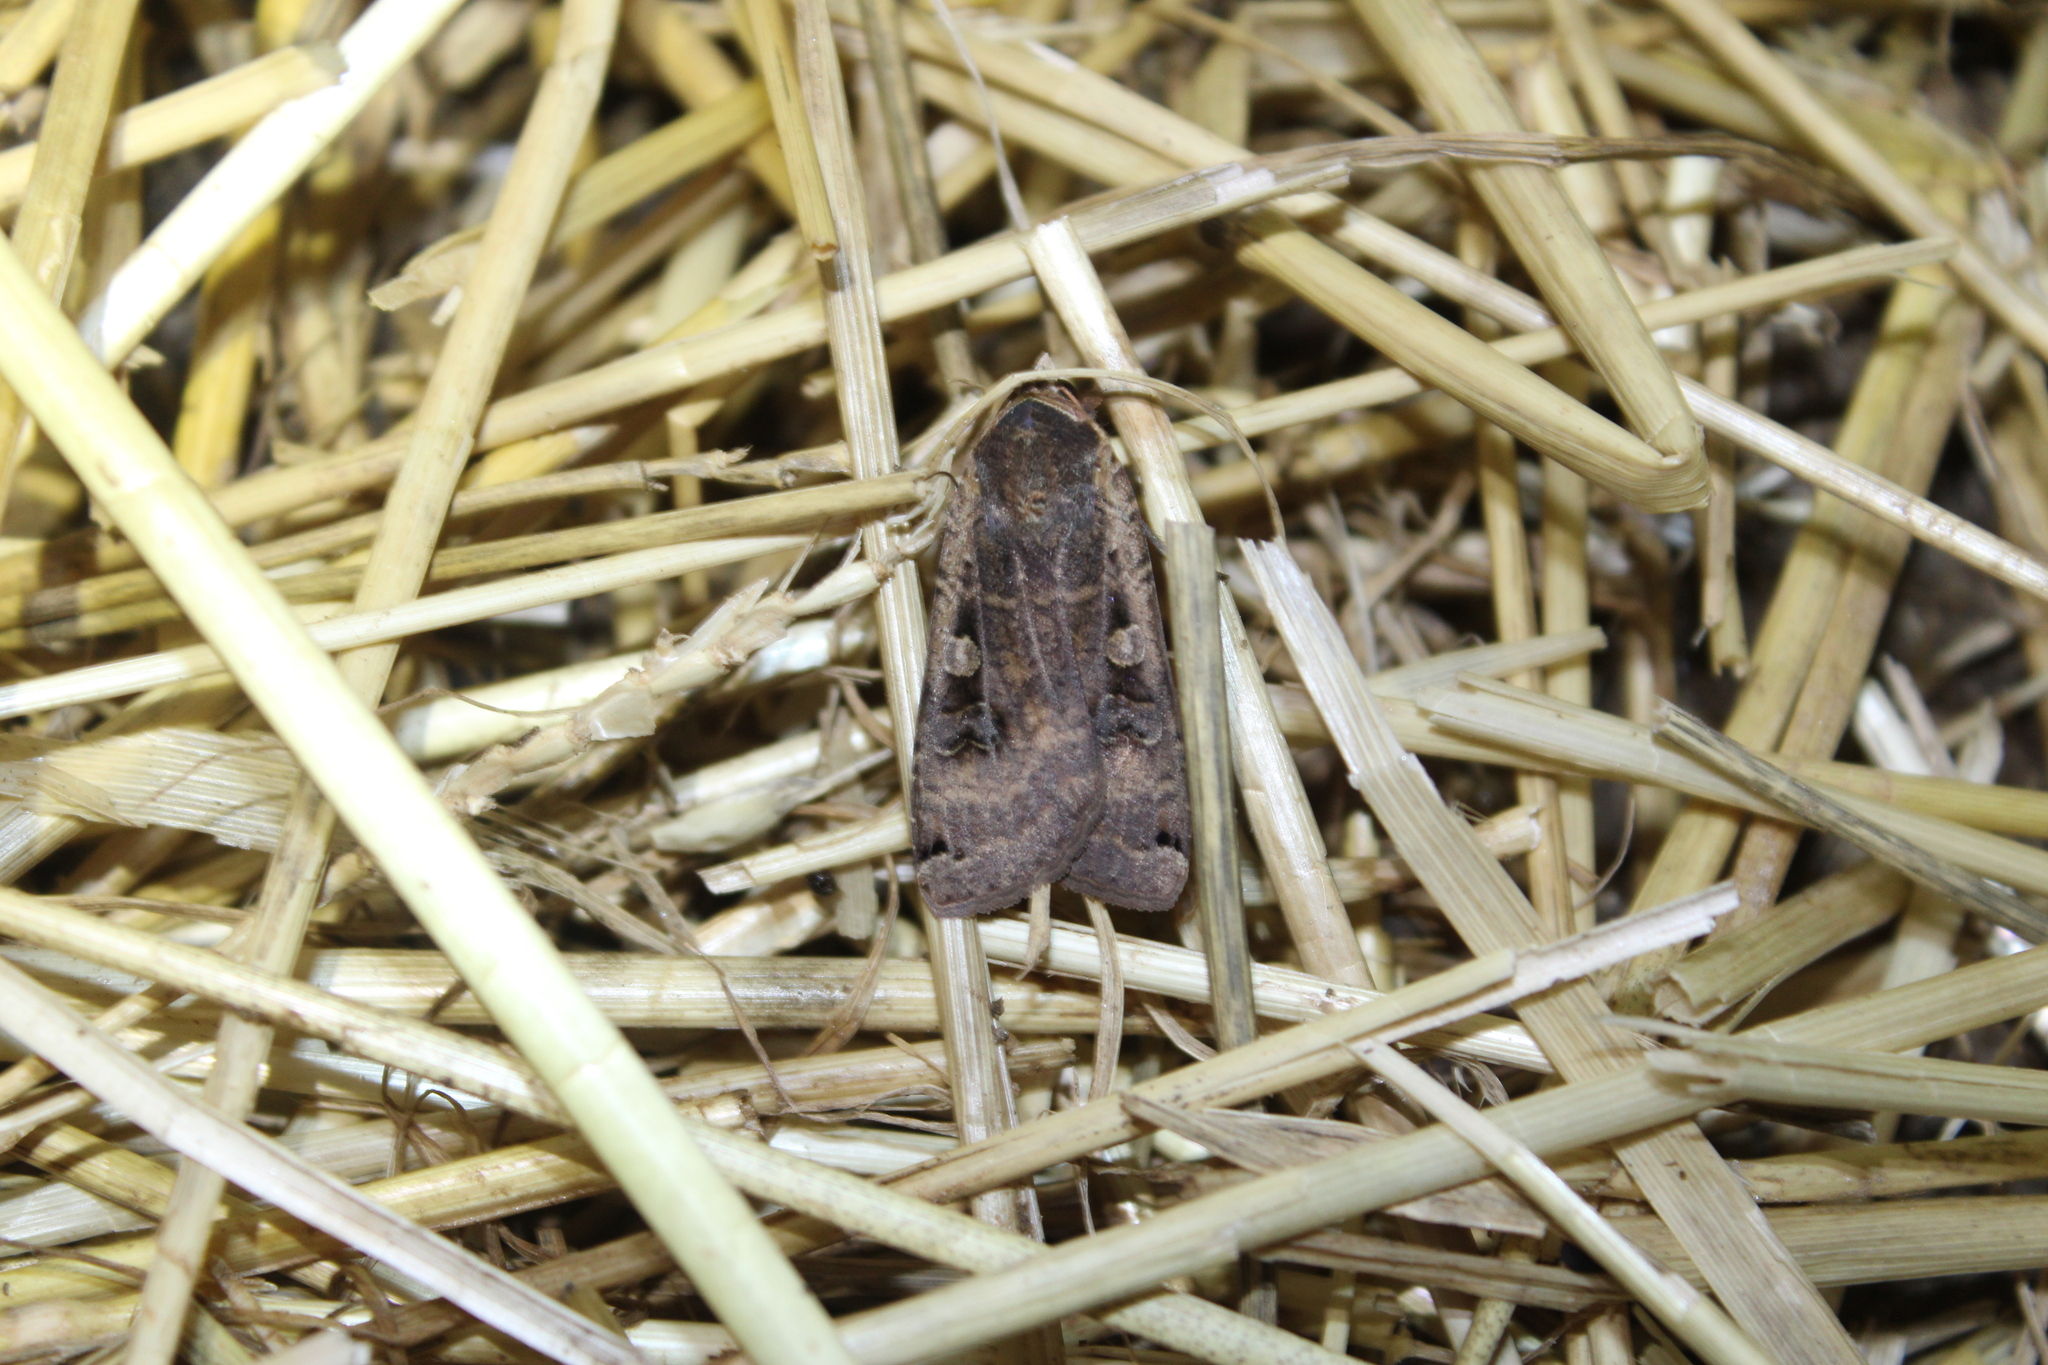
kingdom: Animalia
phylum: Arthropoda
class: Insecta
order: Lepidoptera
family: Noctuidae
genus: Noctua
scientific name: Noctua pronuba
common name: Large yellow underwing
